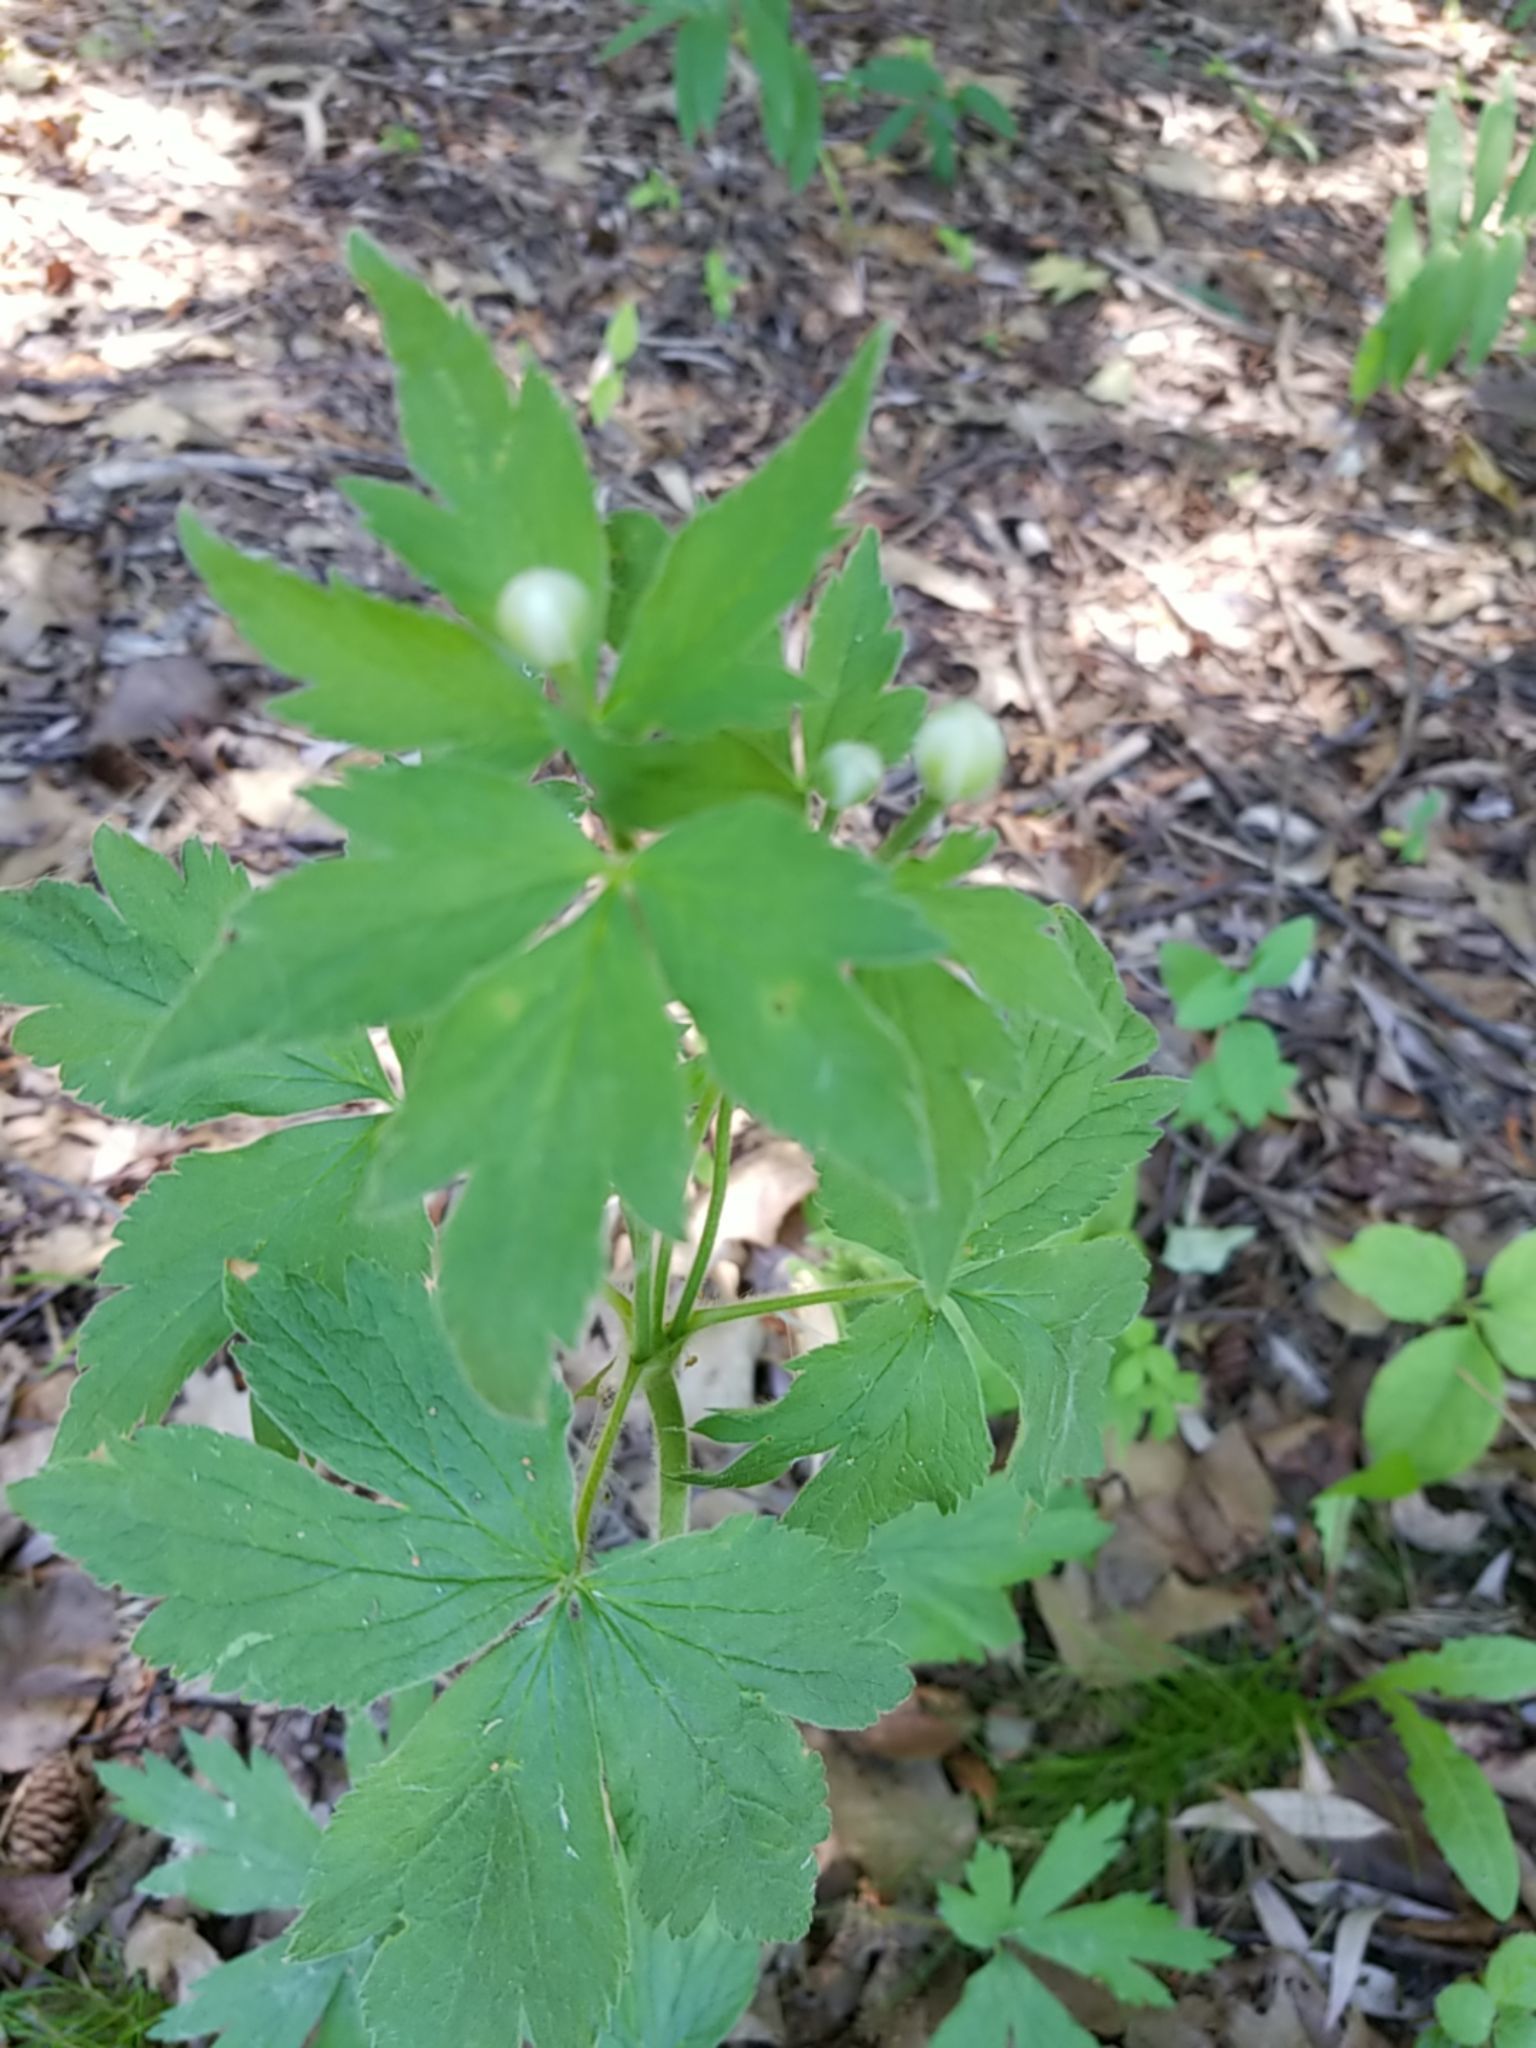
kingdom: Plantae
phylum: Tracheophyta
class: Magnoliopsida
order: Ranunculales
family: Ranunculaceae
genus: Anemone
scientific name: Anemone virginiana
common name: Tall anemone
